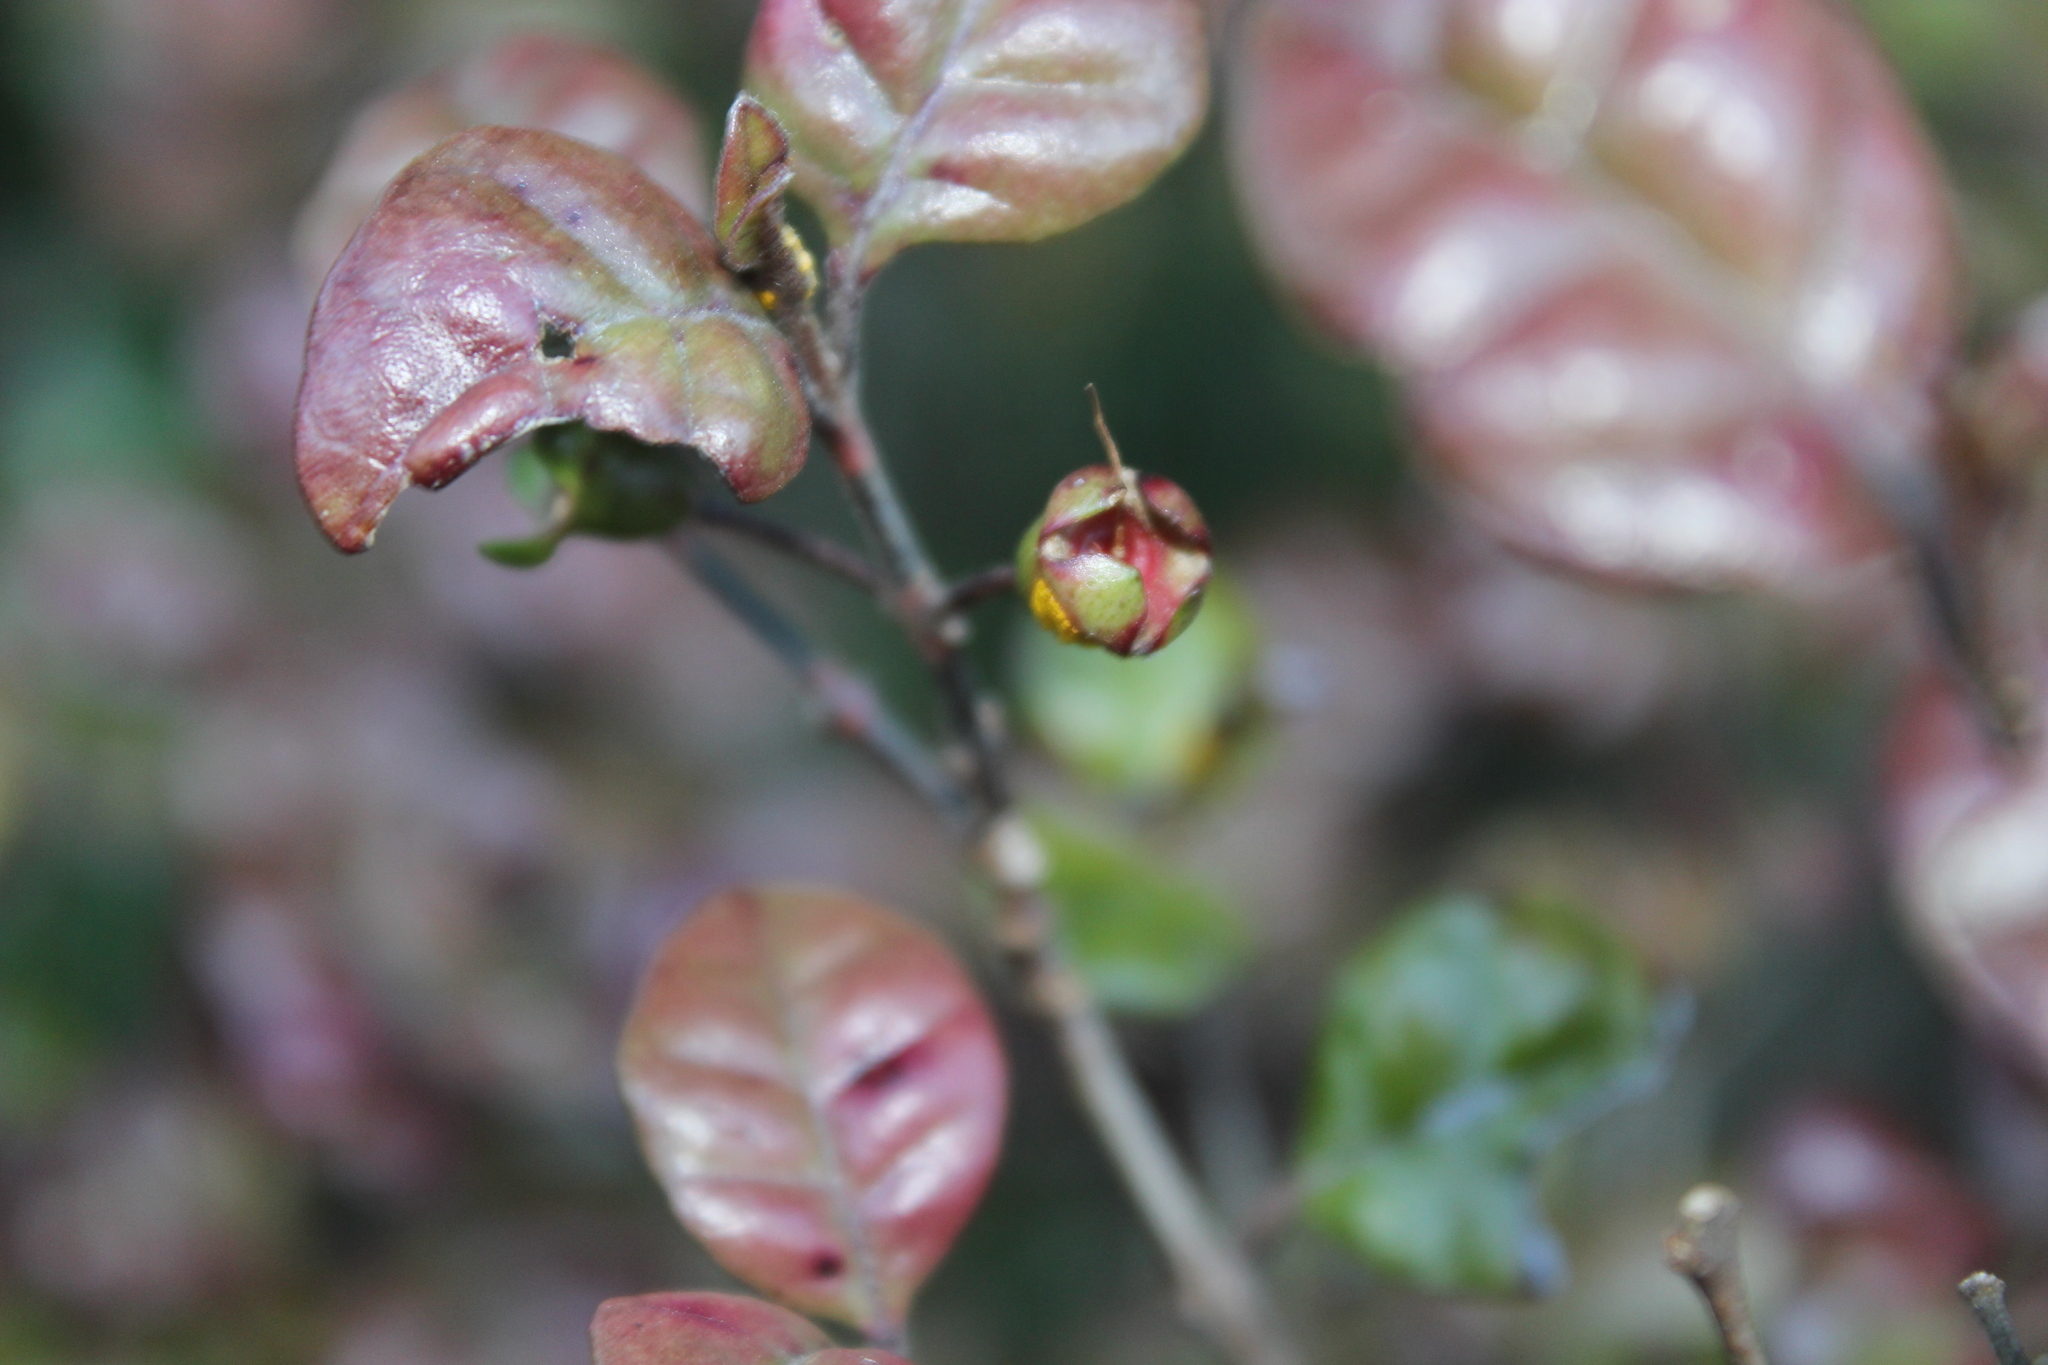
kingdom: Fungi
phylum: Basidiomycota
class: Pucciniomycetes
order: Pucciniales
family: Sphaerophragmiaceae
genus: Austropuccinia
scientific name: Austropuccinia psidii
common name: Myrtle rust
